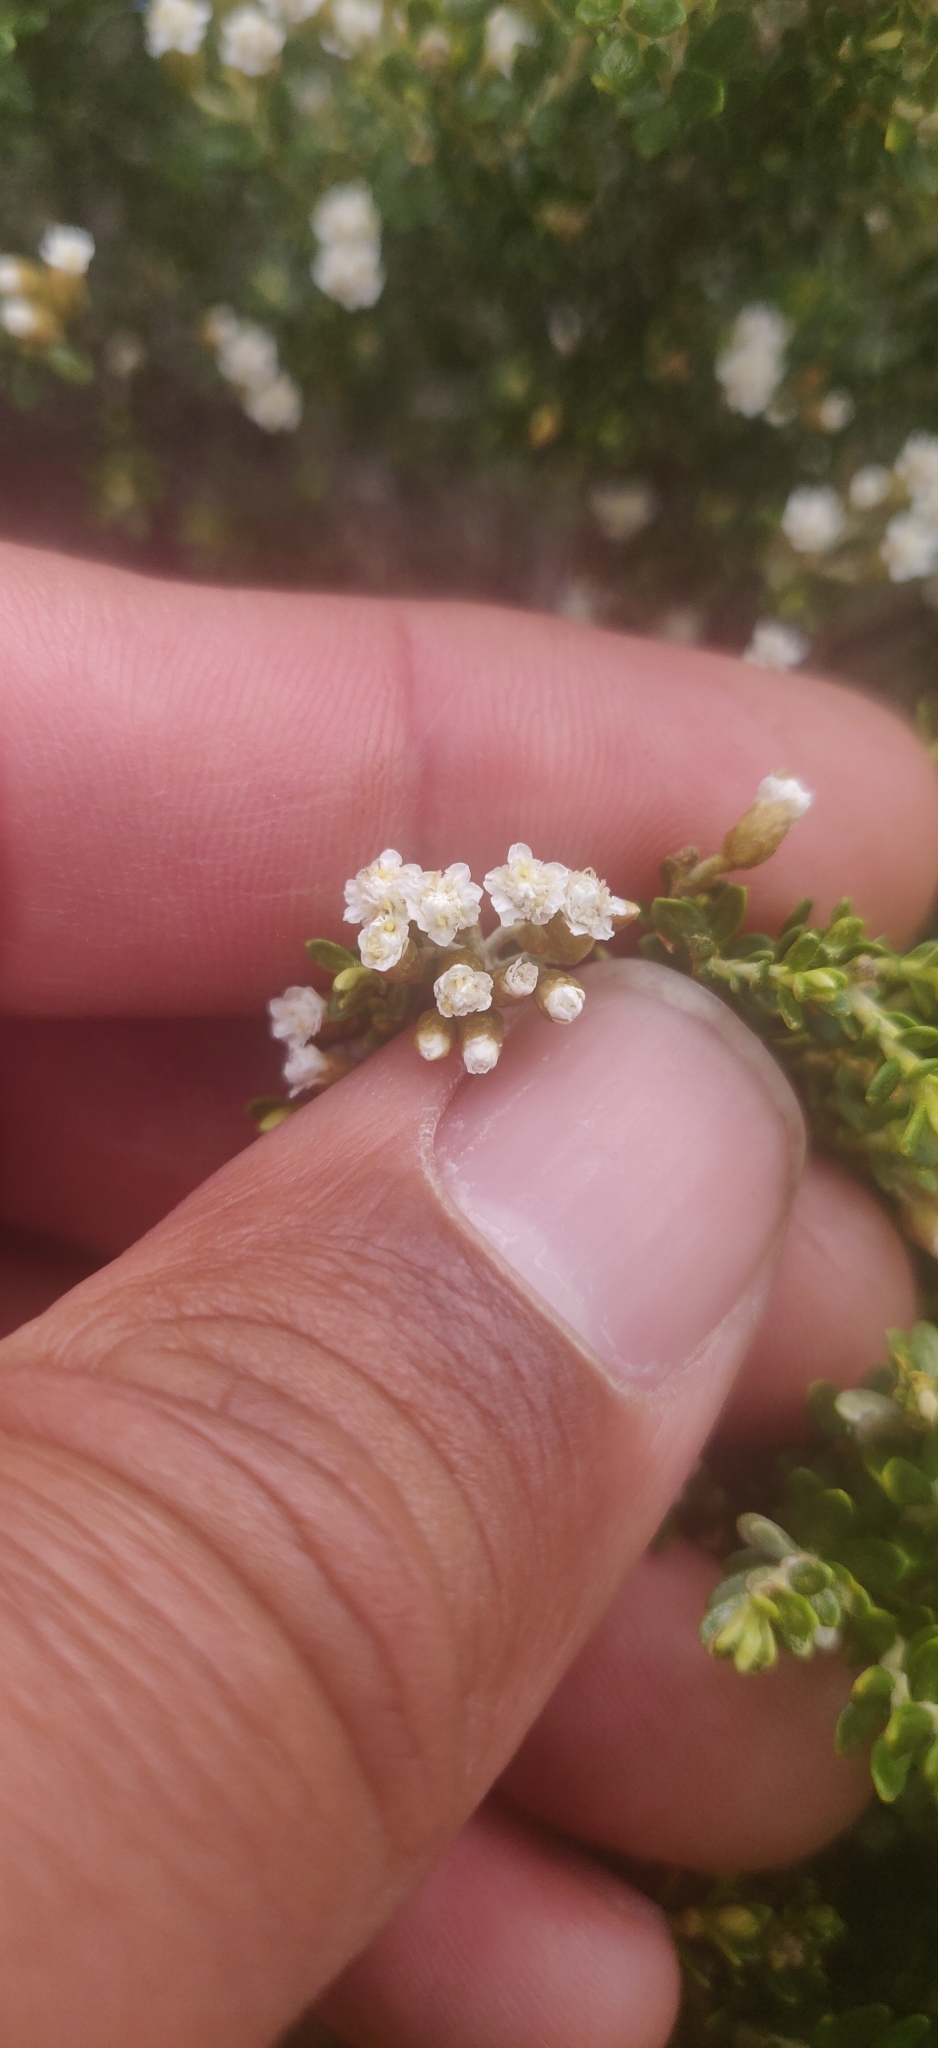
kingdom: Plantae
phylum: Tracheophyta
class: Magnoliopsida
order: Asterales
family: Asteraceae
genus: Ozothamnus
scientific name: Ozothamnus leptophyllus
